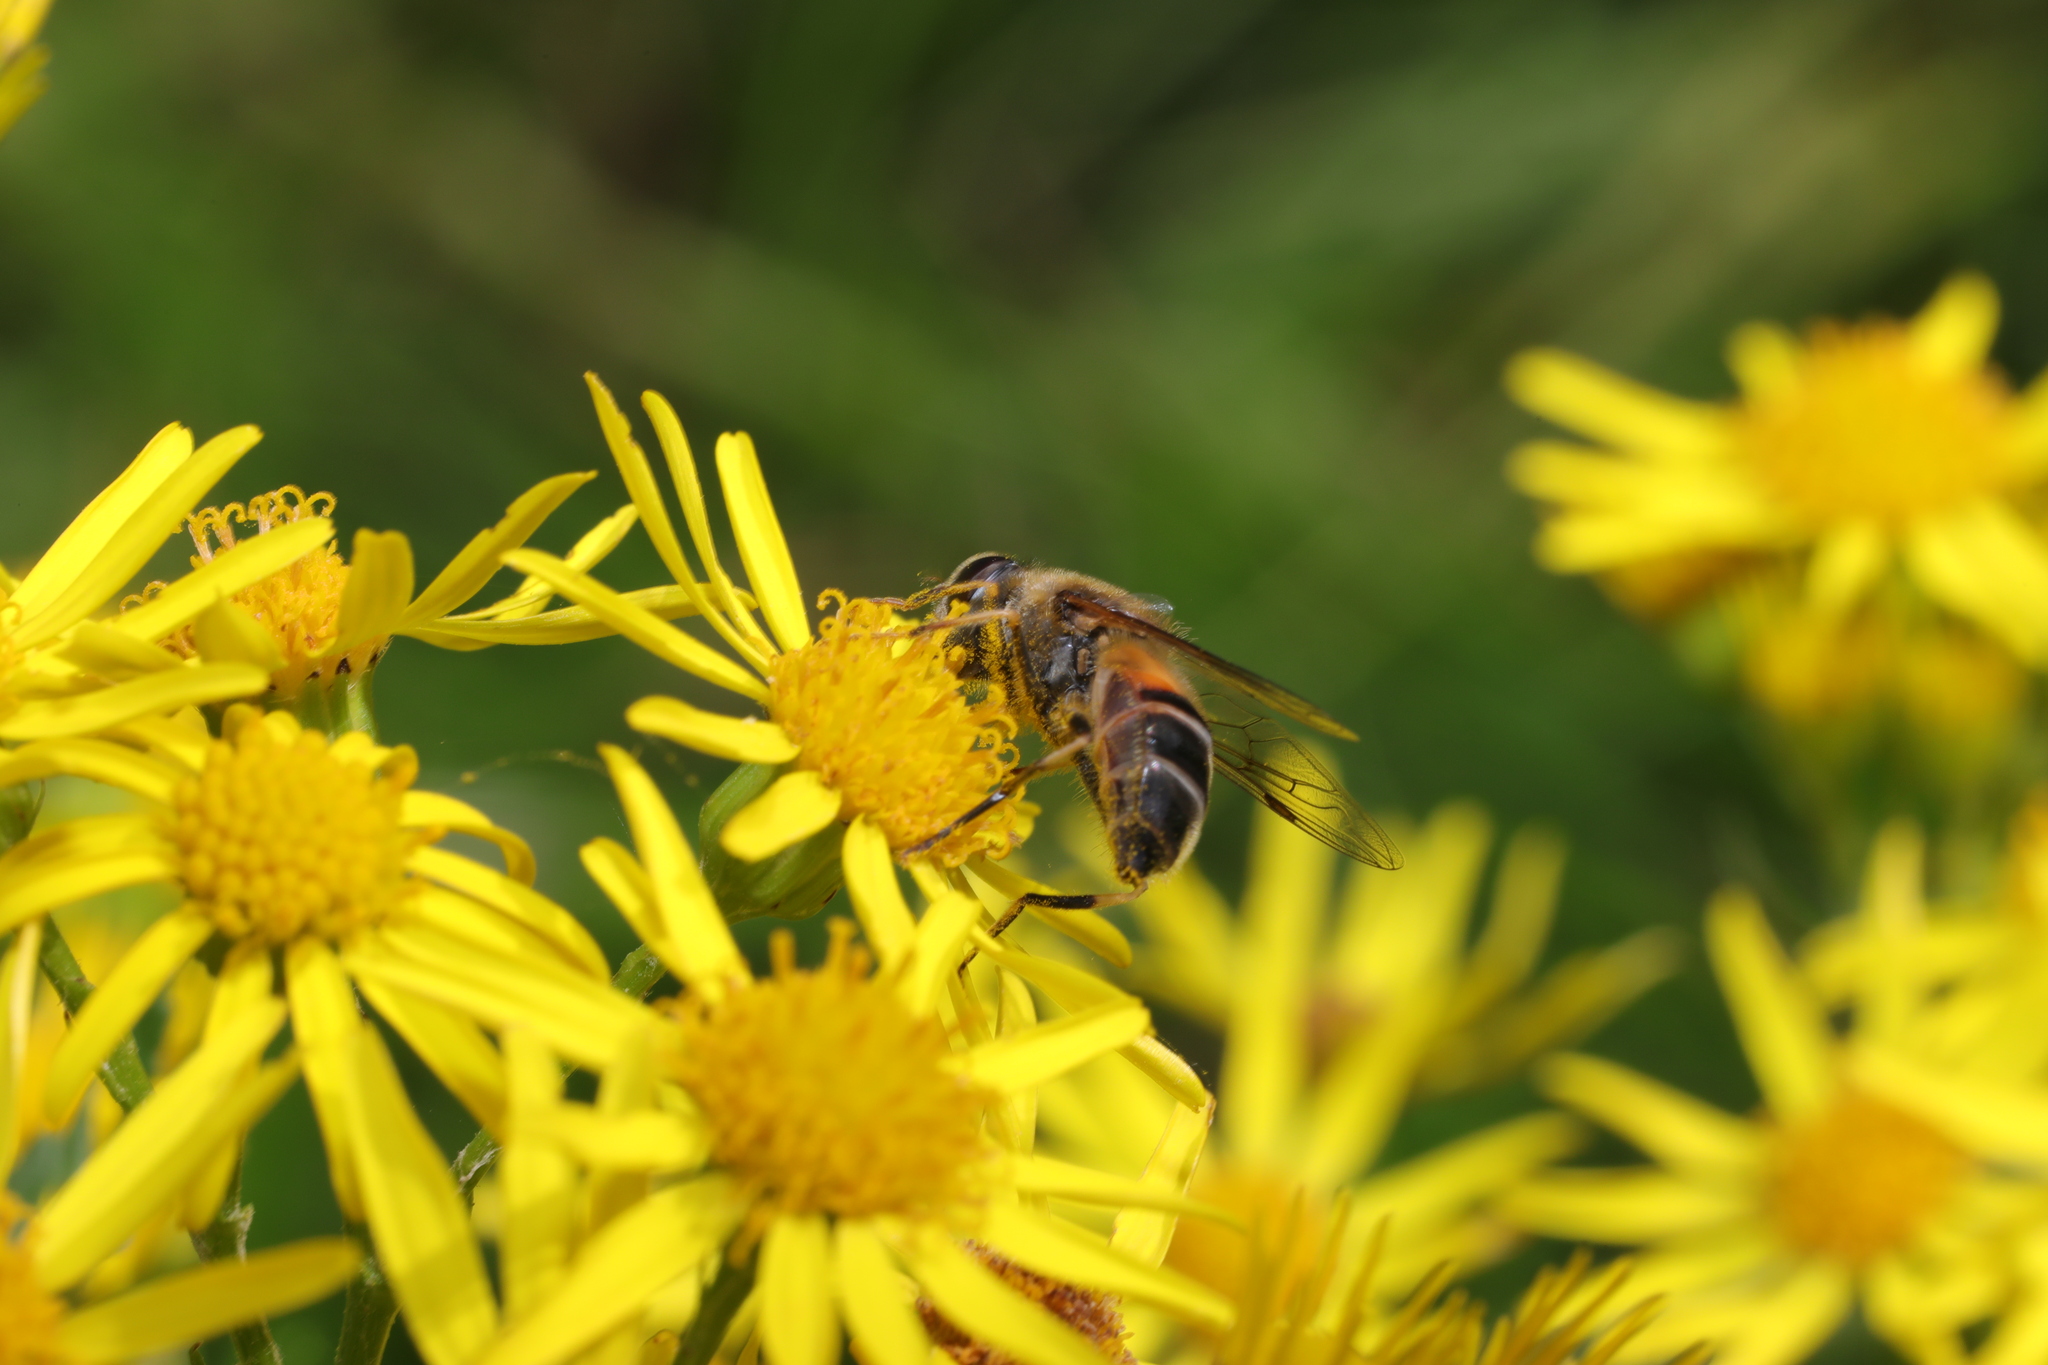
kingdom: Animalia
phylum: Arthropoda
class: Insecta
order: Diptera
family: Syrphidae
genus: Eristalis
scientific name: Eristalis pertinax
